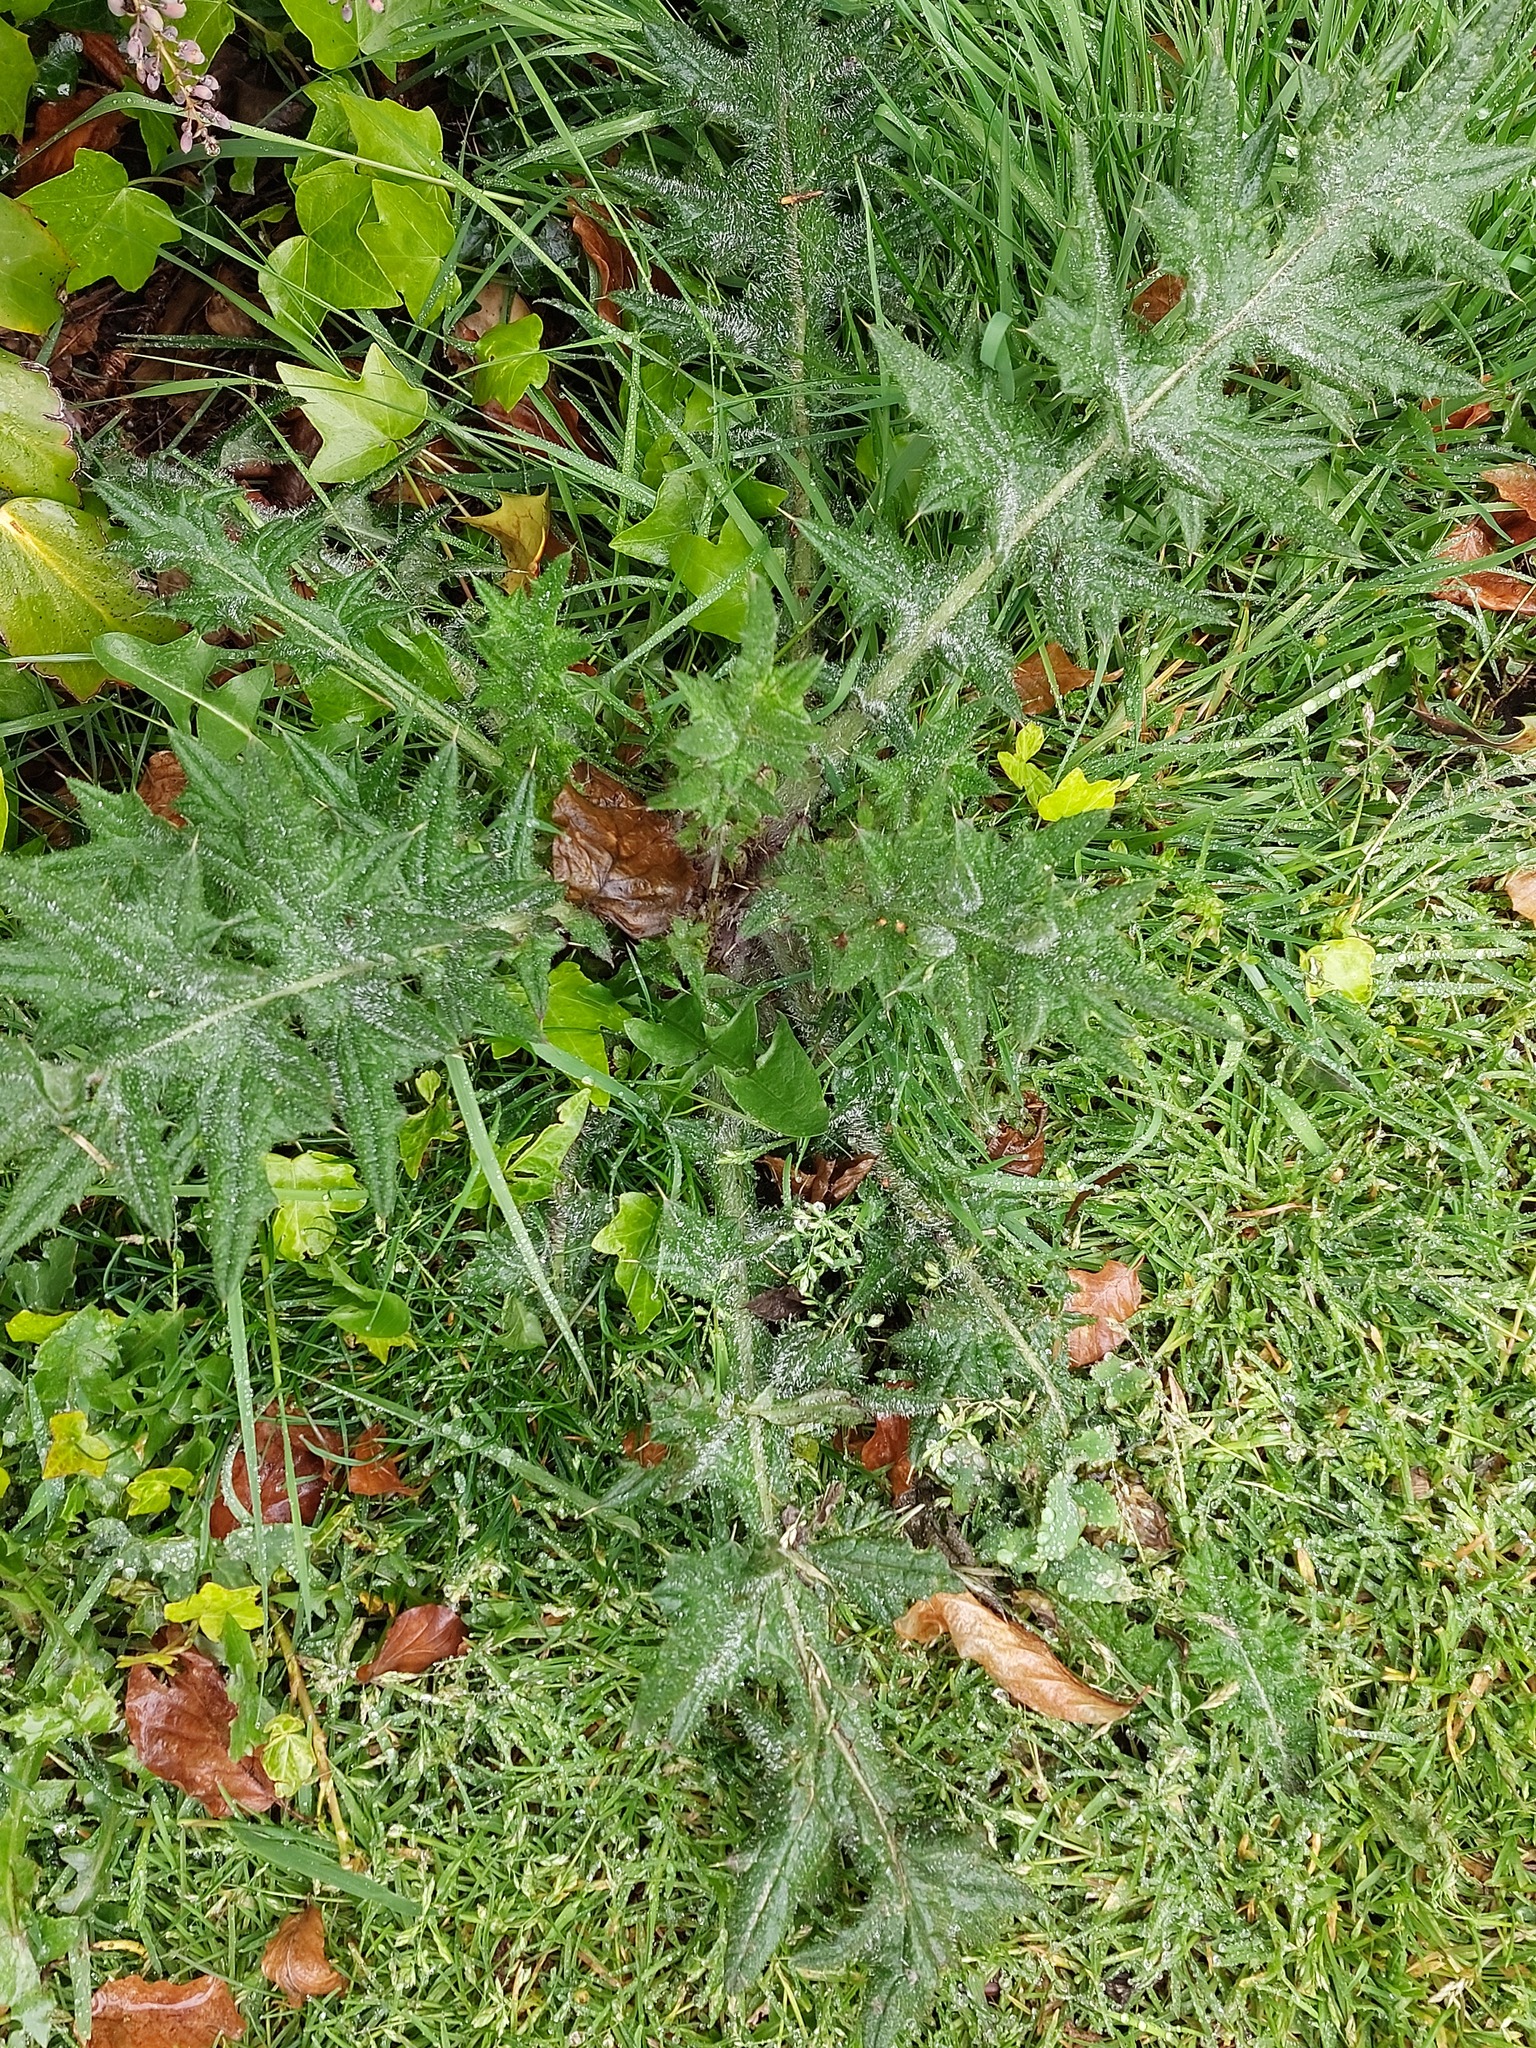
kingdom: Plantae
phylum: Tracheophyta
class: Magnoliopsida
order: Asterales
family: Asteraceae
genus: Cirsium
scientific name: Cirsium vulgare
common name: Bull thistle
